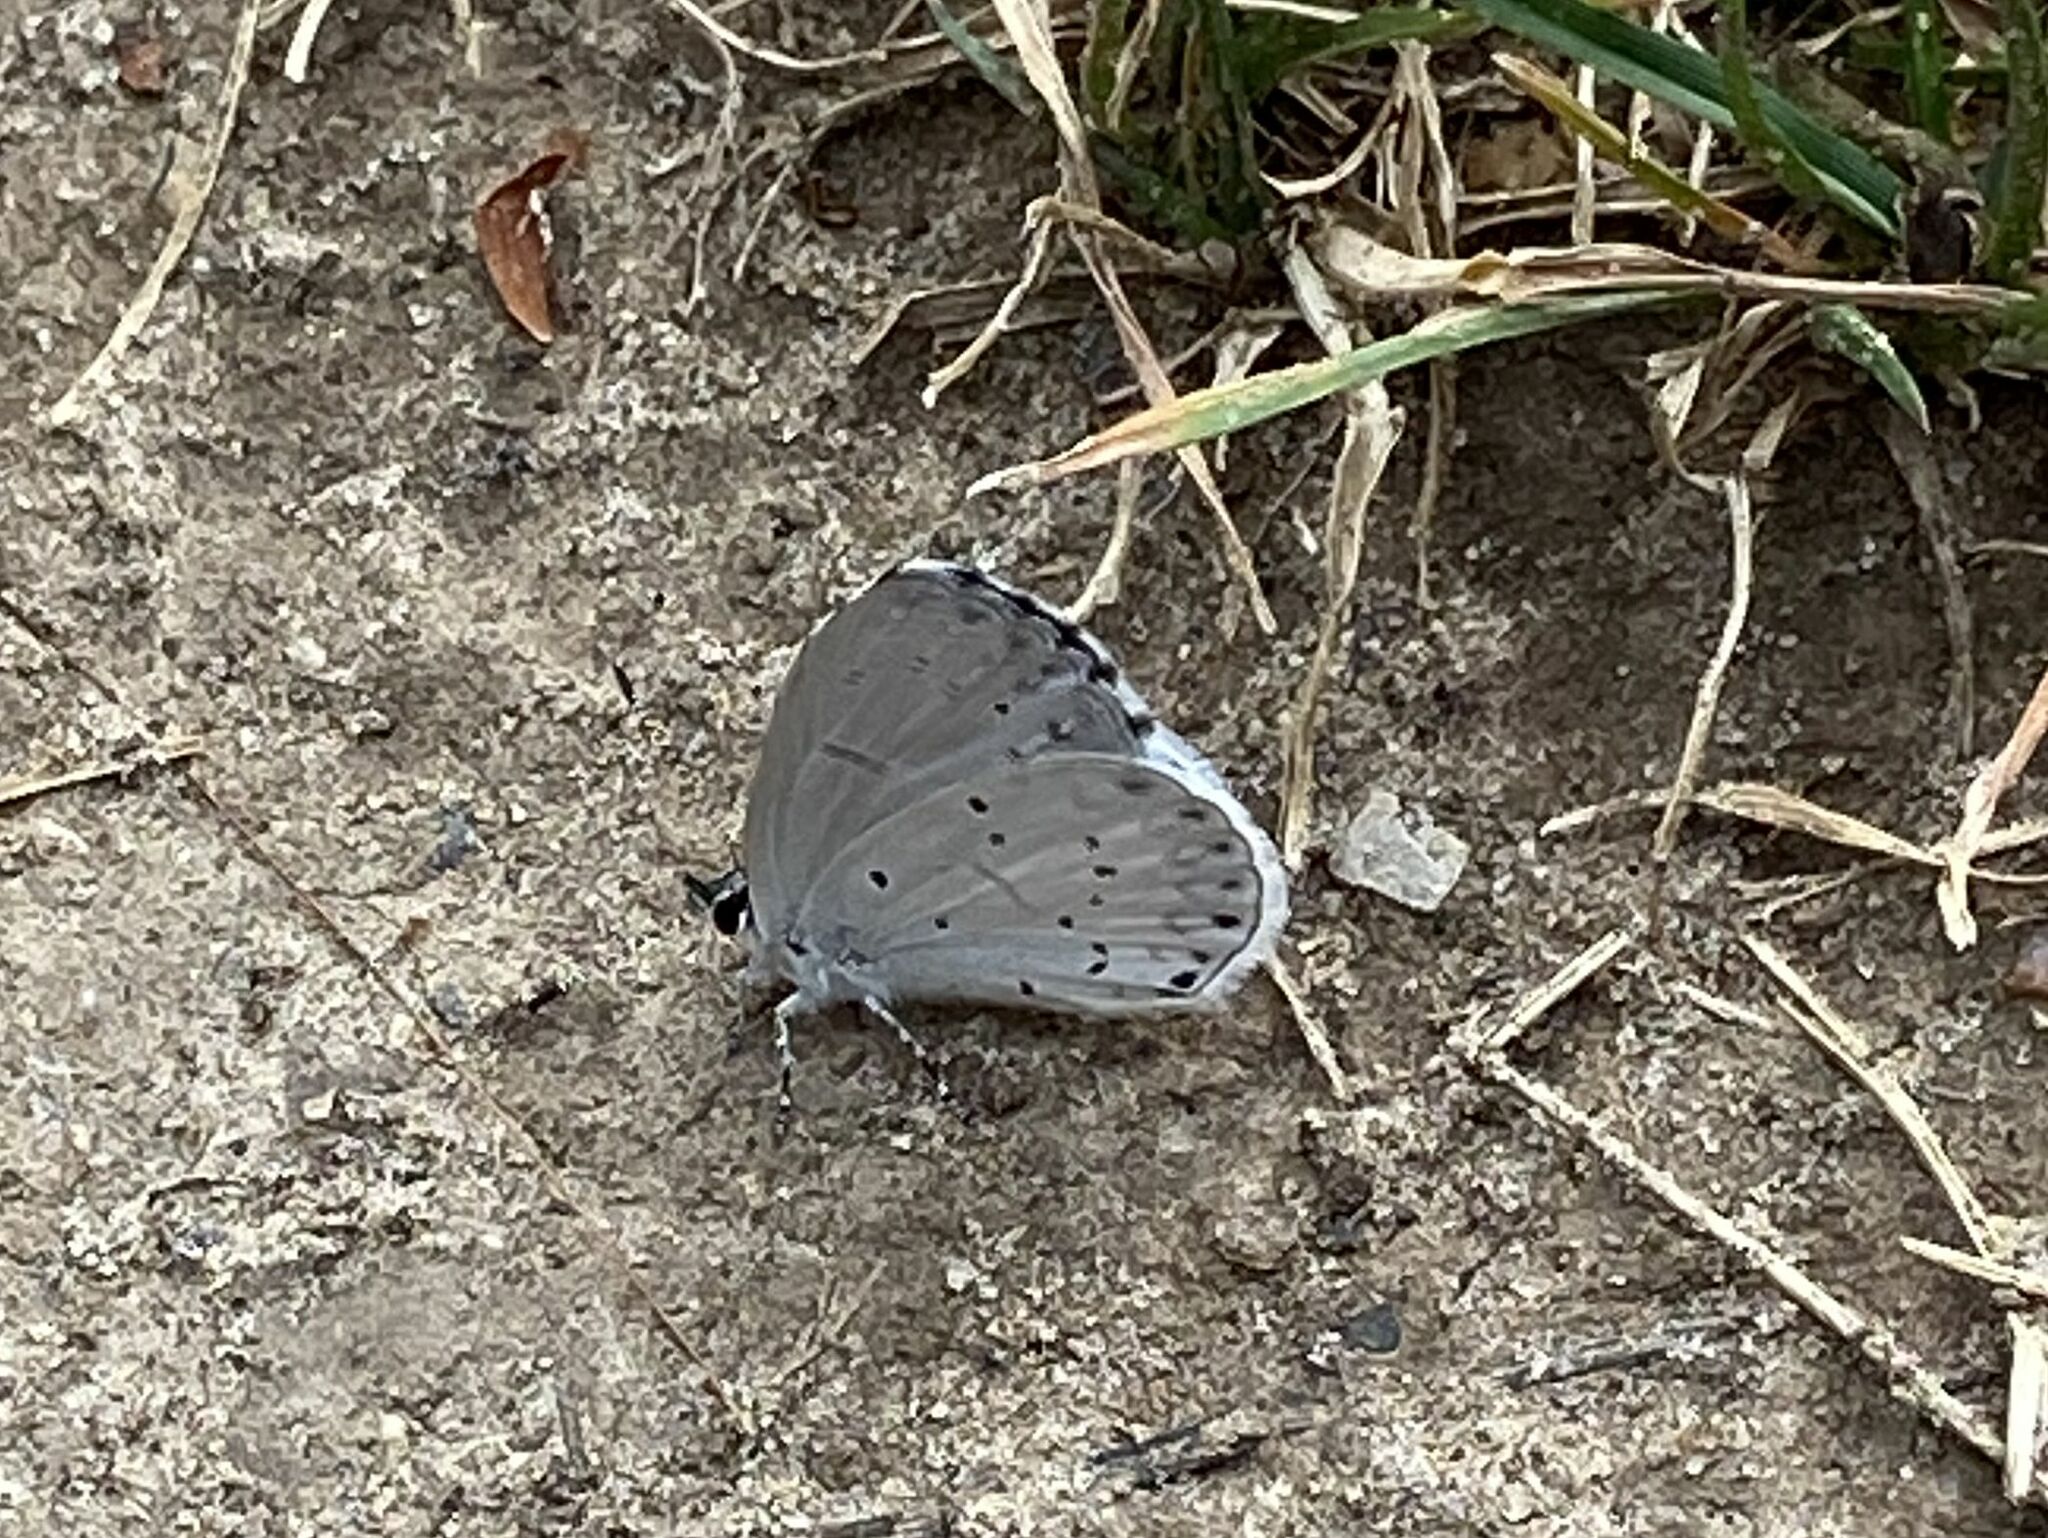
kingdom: Animalia
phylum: Arthropoda
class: Insecta
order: Lepidoptera
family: Lycaenidae
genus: Cyaniris
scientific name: Cyaniris neglecta
